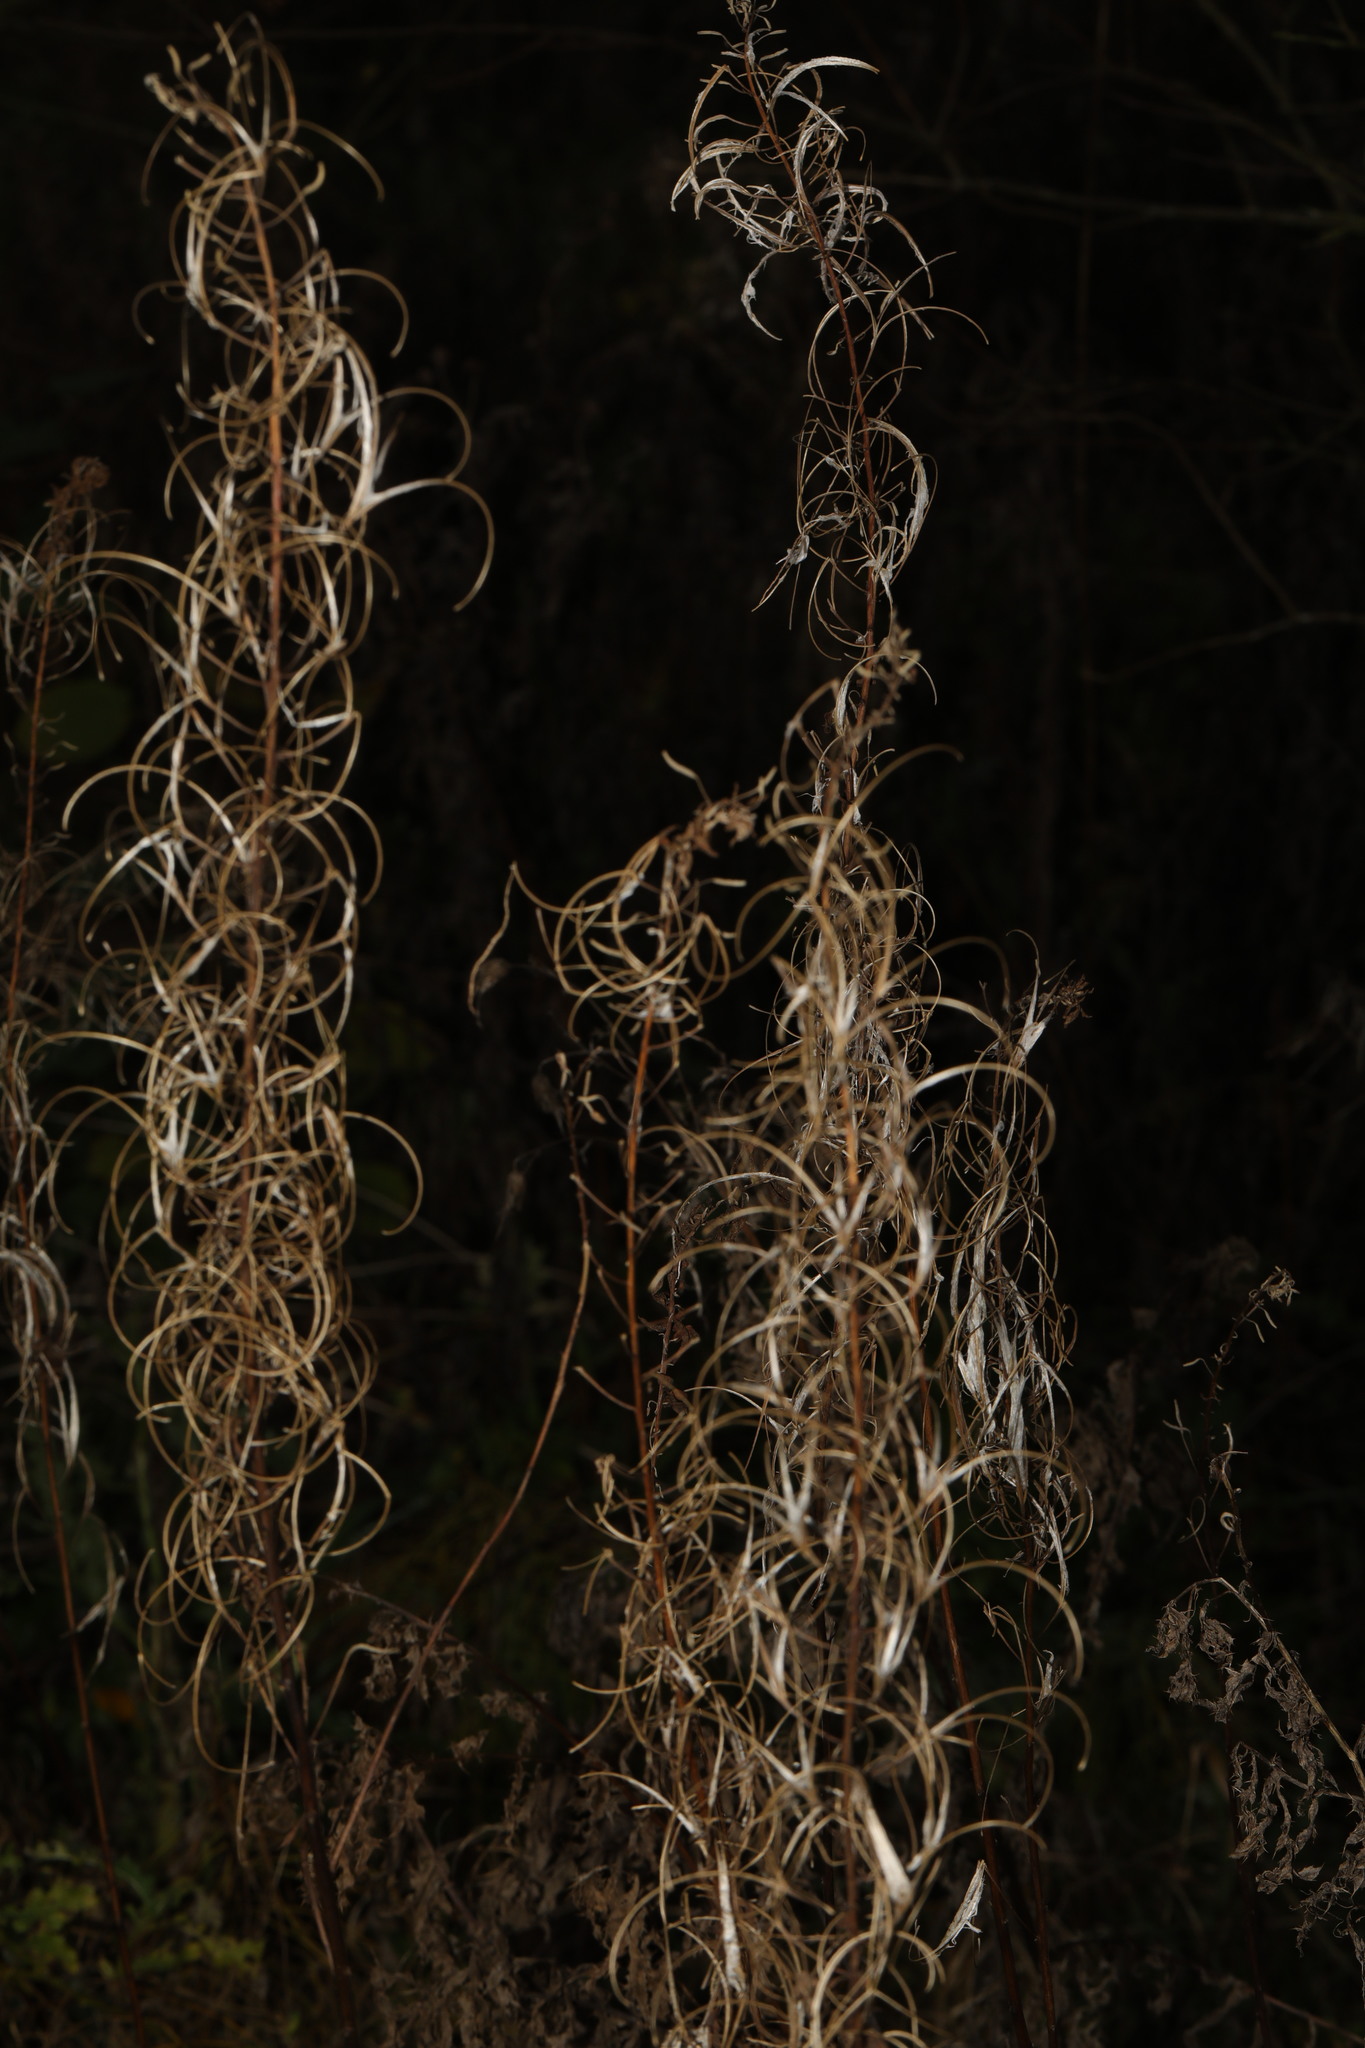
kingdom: Plantae
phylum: Tracheophyta
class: Magnoliopsida
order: Myrtales
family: Onagraceae
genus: Chamaenerion
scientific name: Chamaenerion angustifolium
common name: Fireweed
